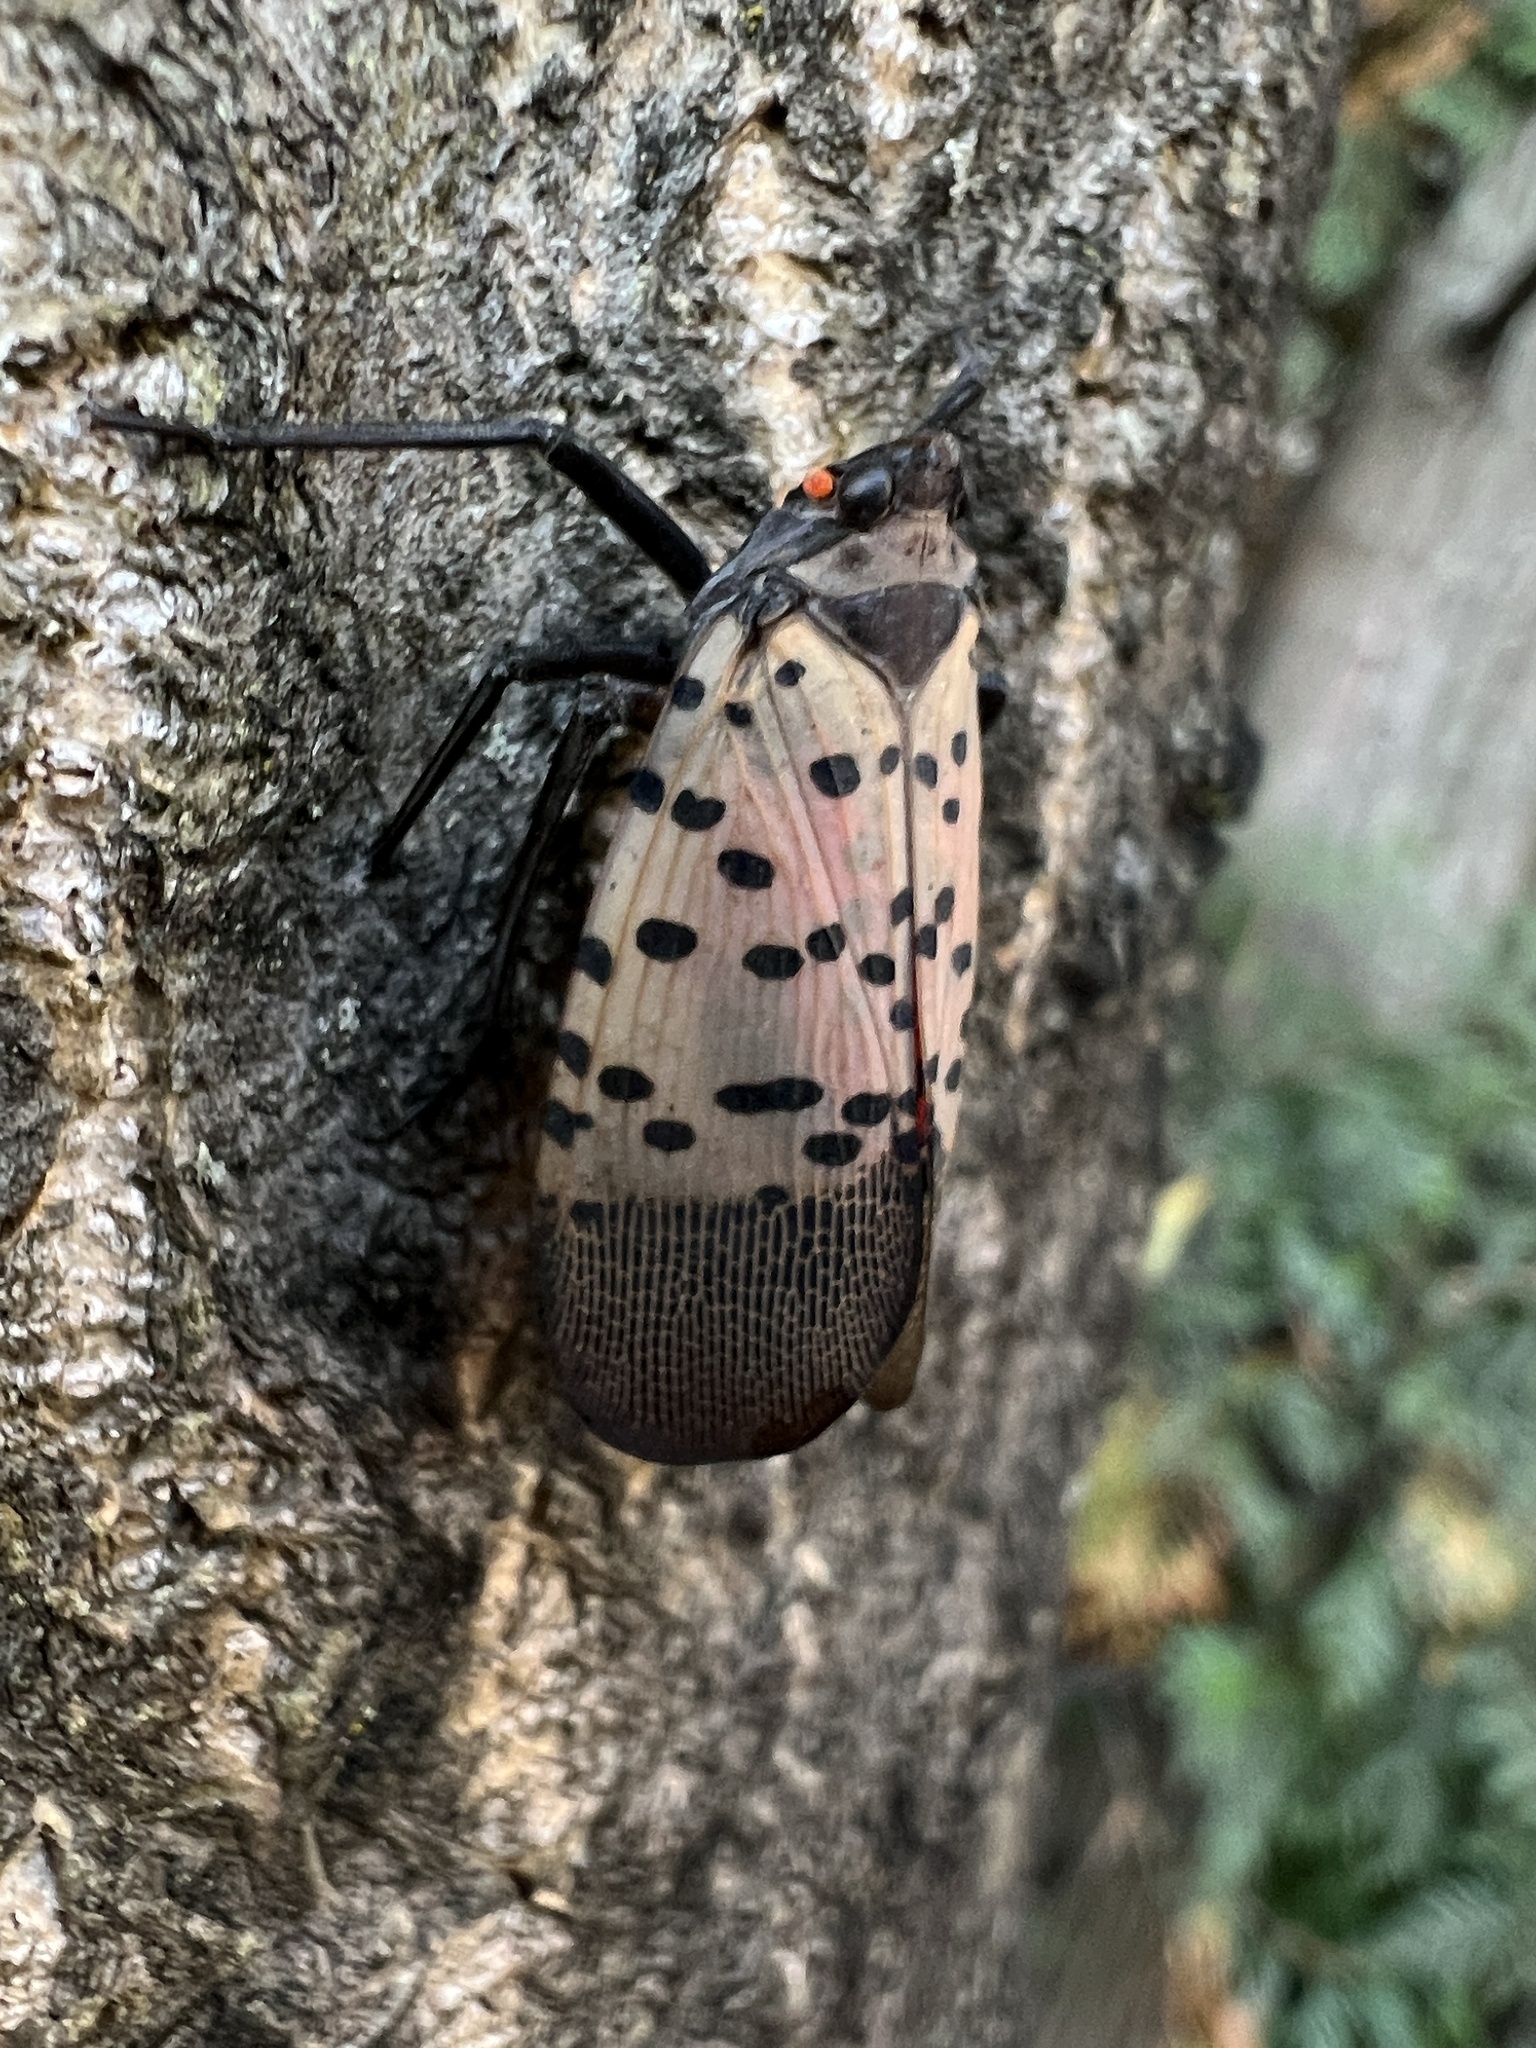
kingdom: Animalia
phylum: Arthropoda
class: Insecta
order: Hemiptera
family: Fulgoridae
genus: Lycorma
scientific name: Lycorma delicatula
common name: Spotted lanternfly
